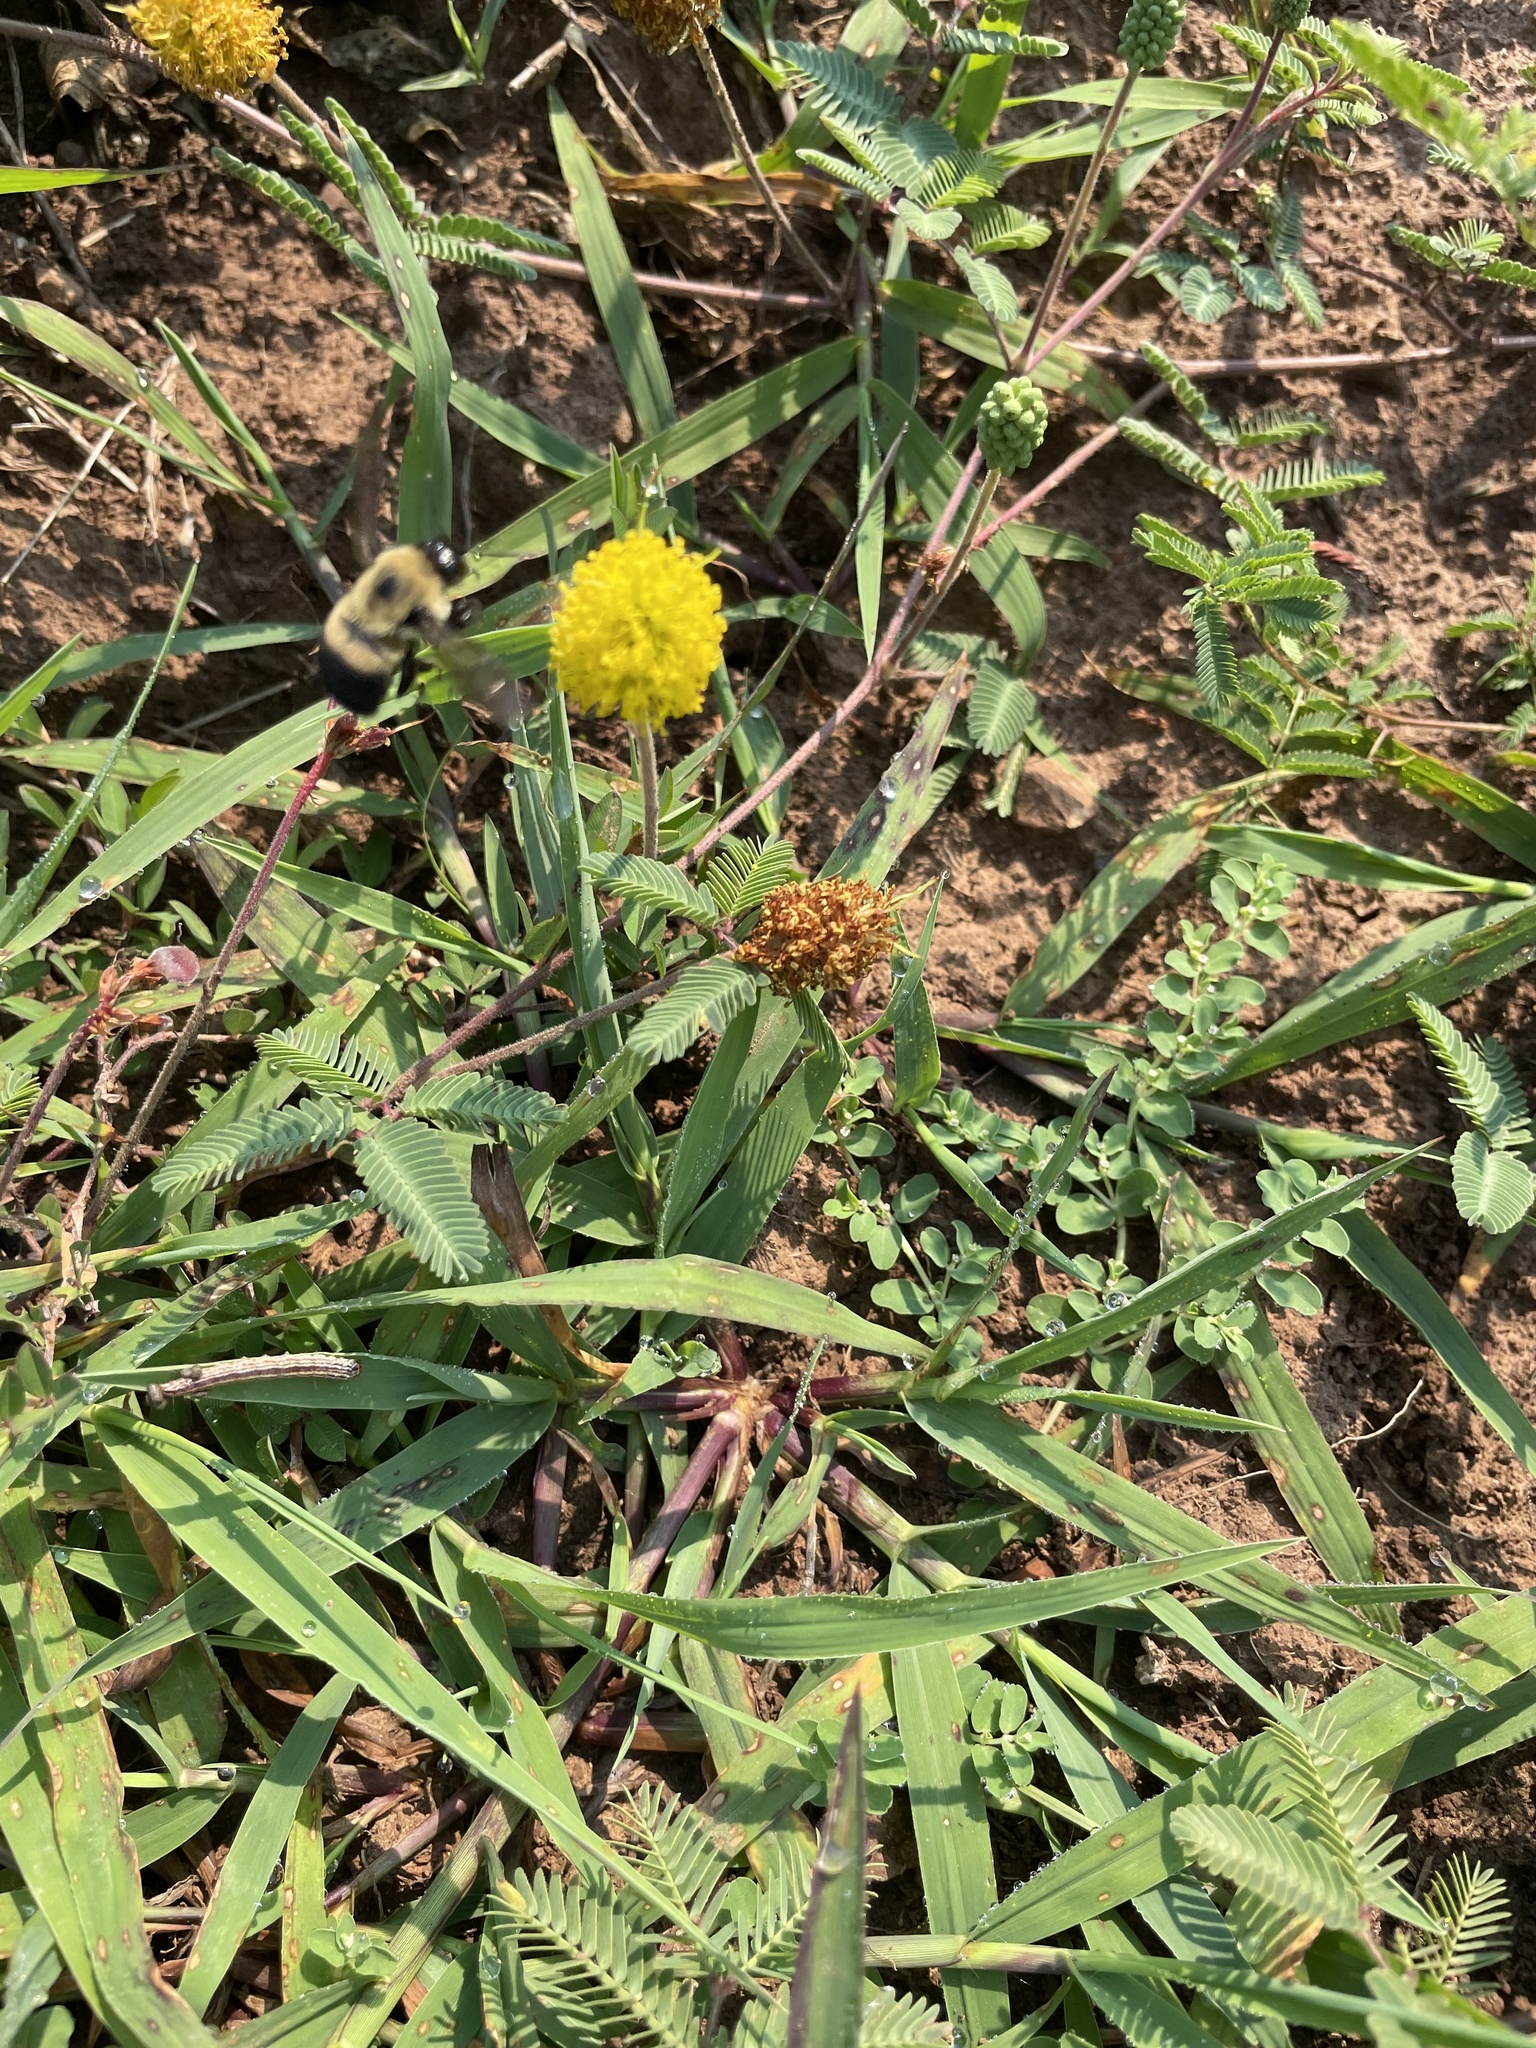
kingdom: Animalia
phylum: Arthropoda
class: Insecta
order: Hymenoptera
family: Apidae
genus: Bombus
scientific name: Bombus griseocollis
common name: Brown-belted bumble bee
